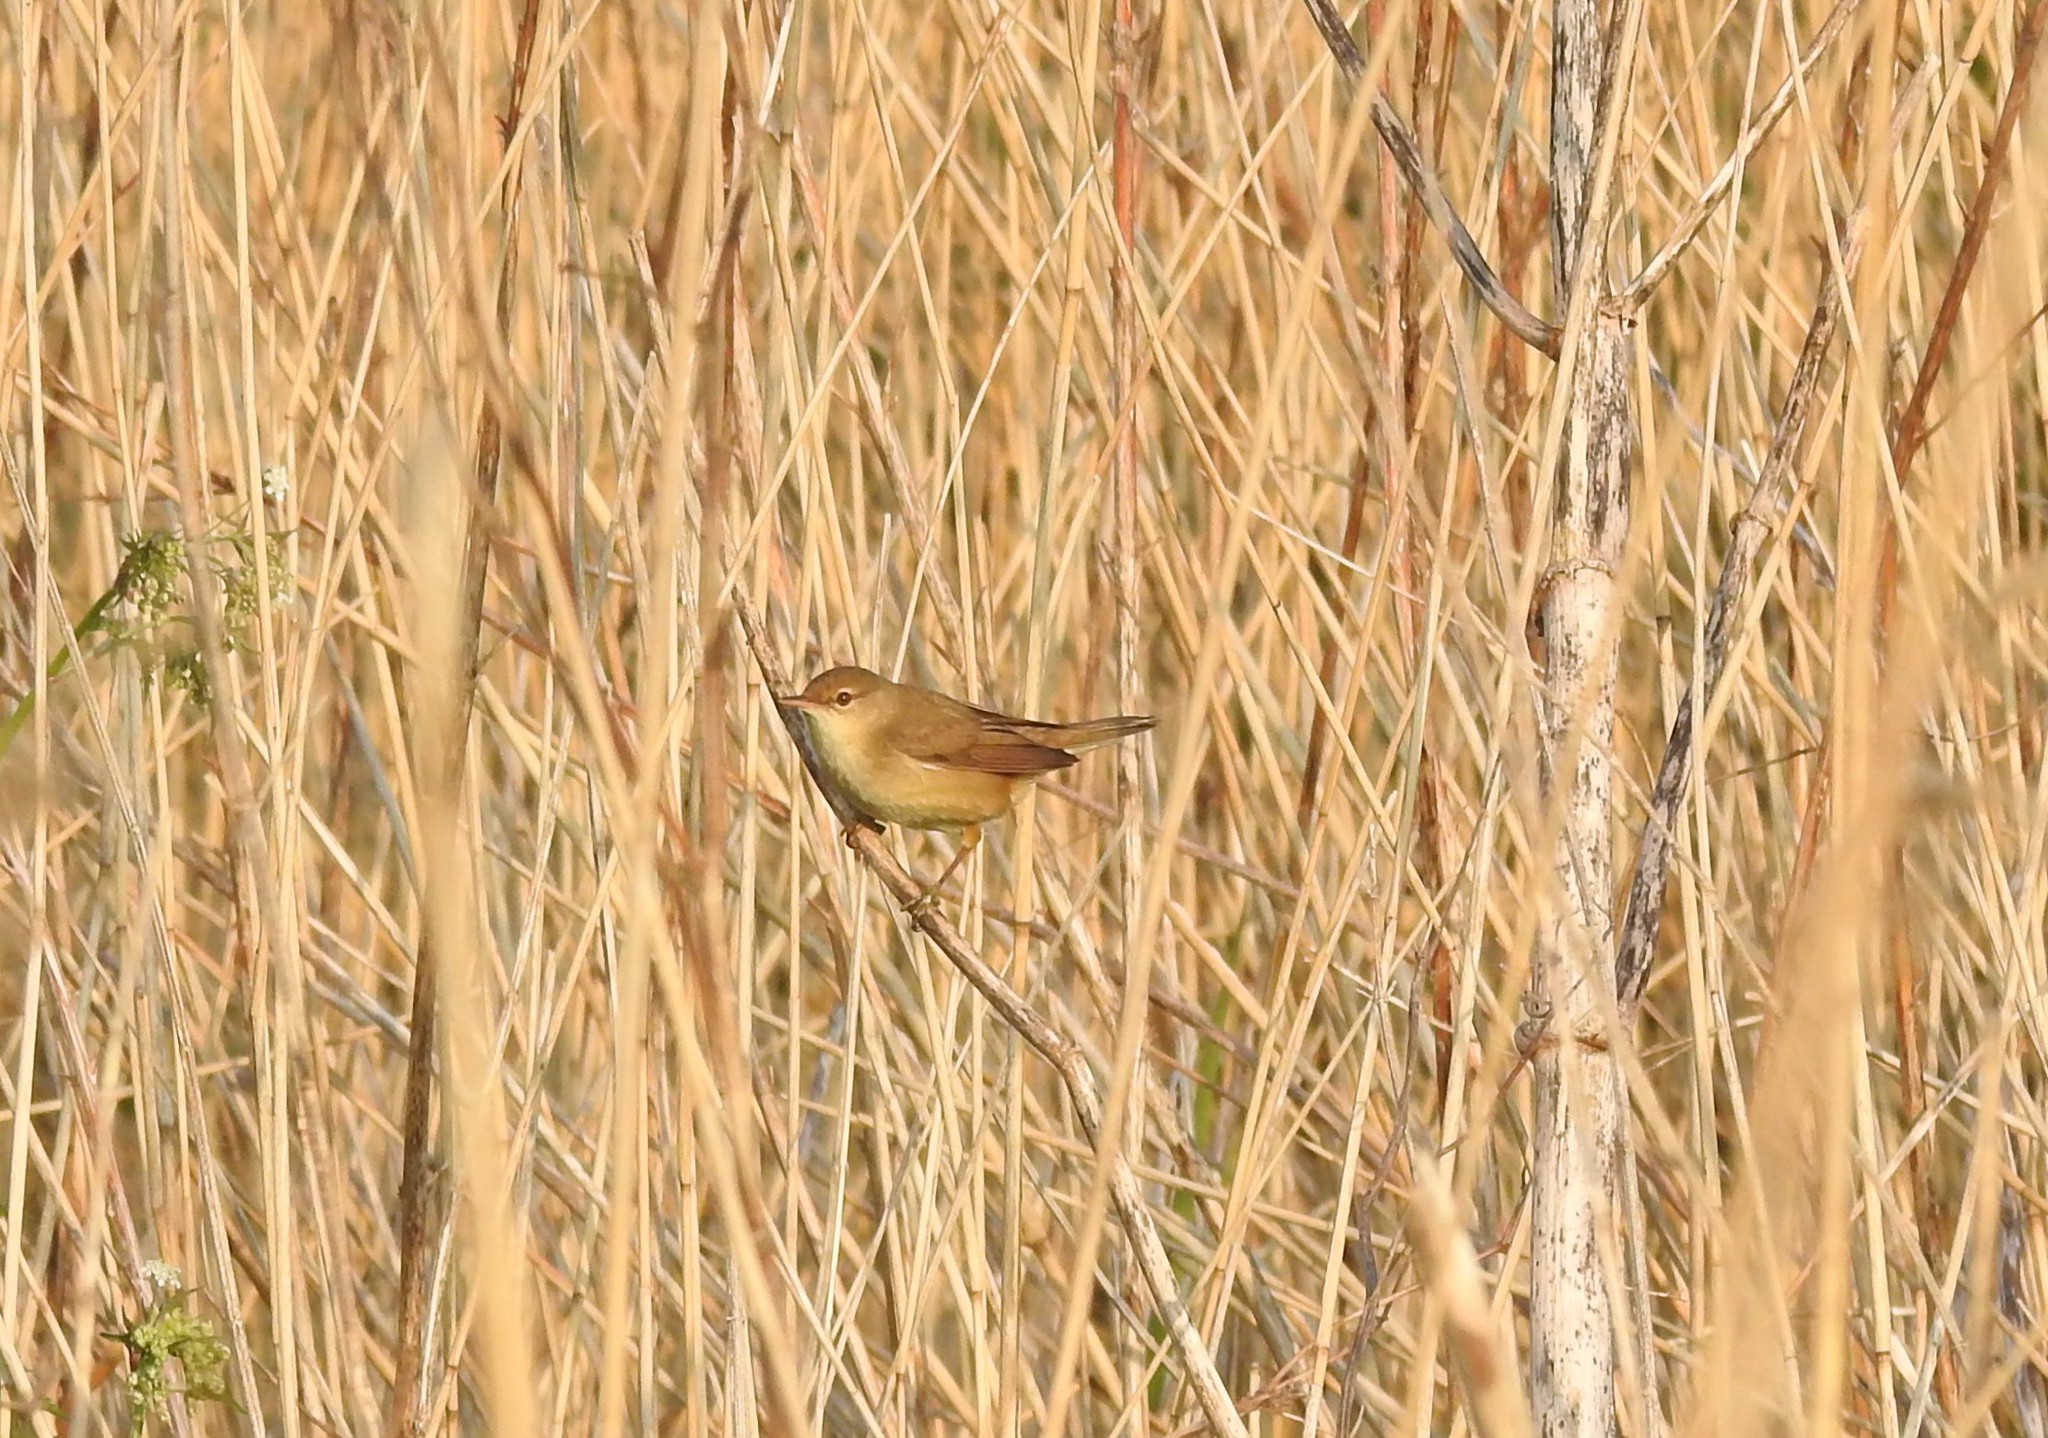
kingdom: Animalia
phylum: Chordata
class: Aves
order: Passeriformes
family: Acrocephalidae
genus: Acrocephalus
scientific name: Acrocephalus scirpaceus
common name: Eurasian reed warbler
